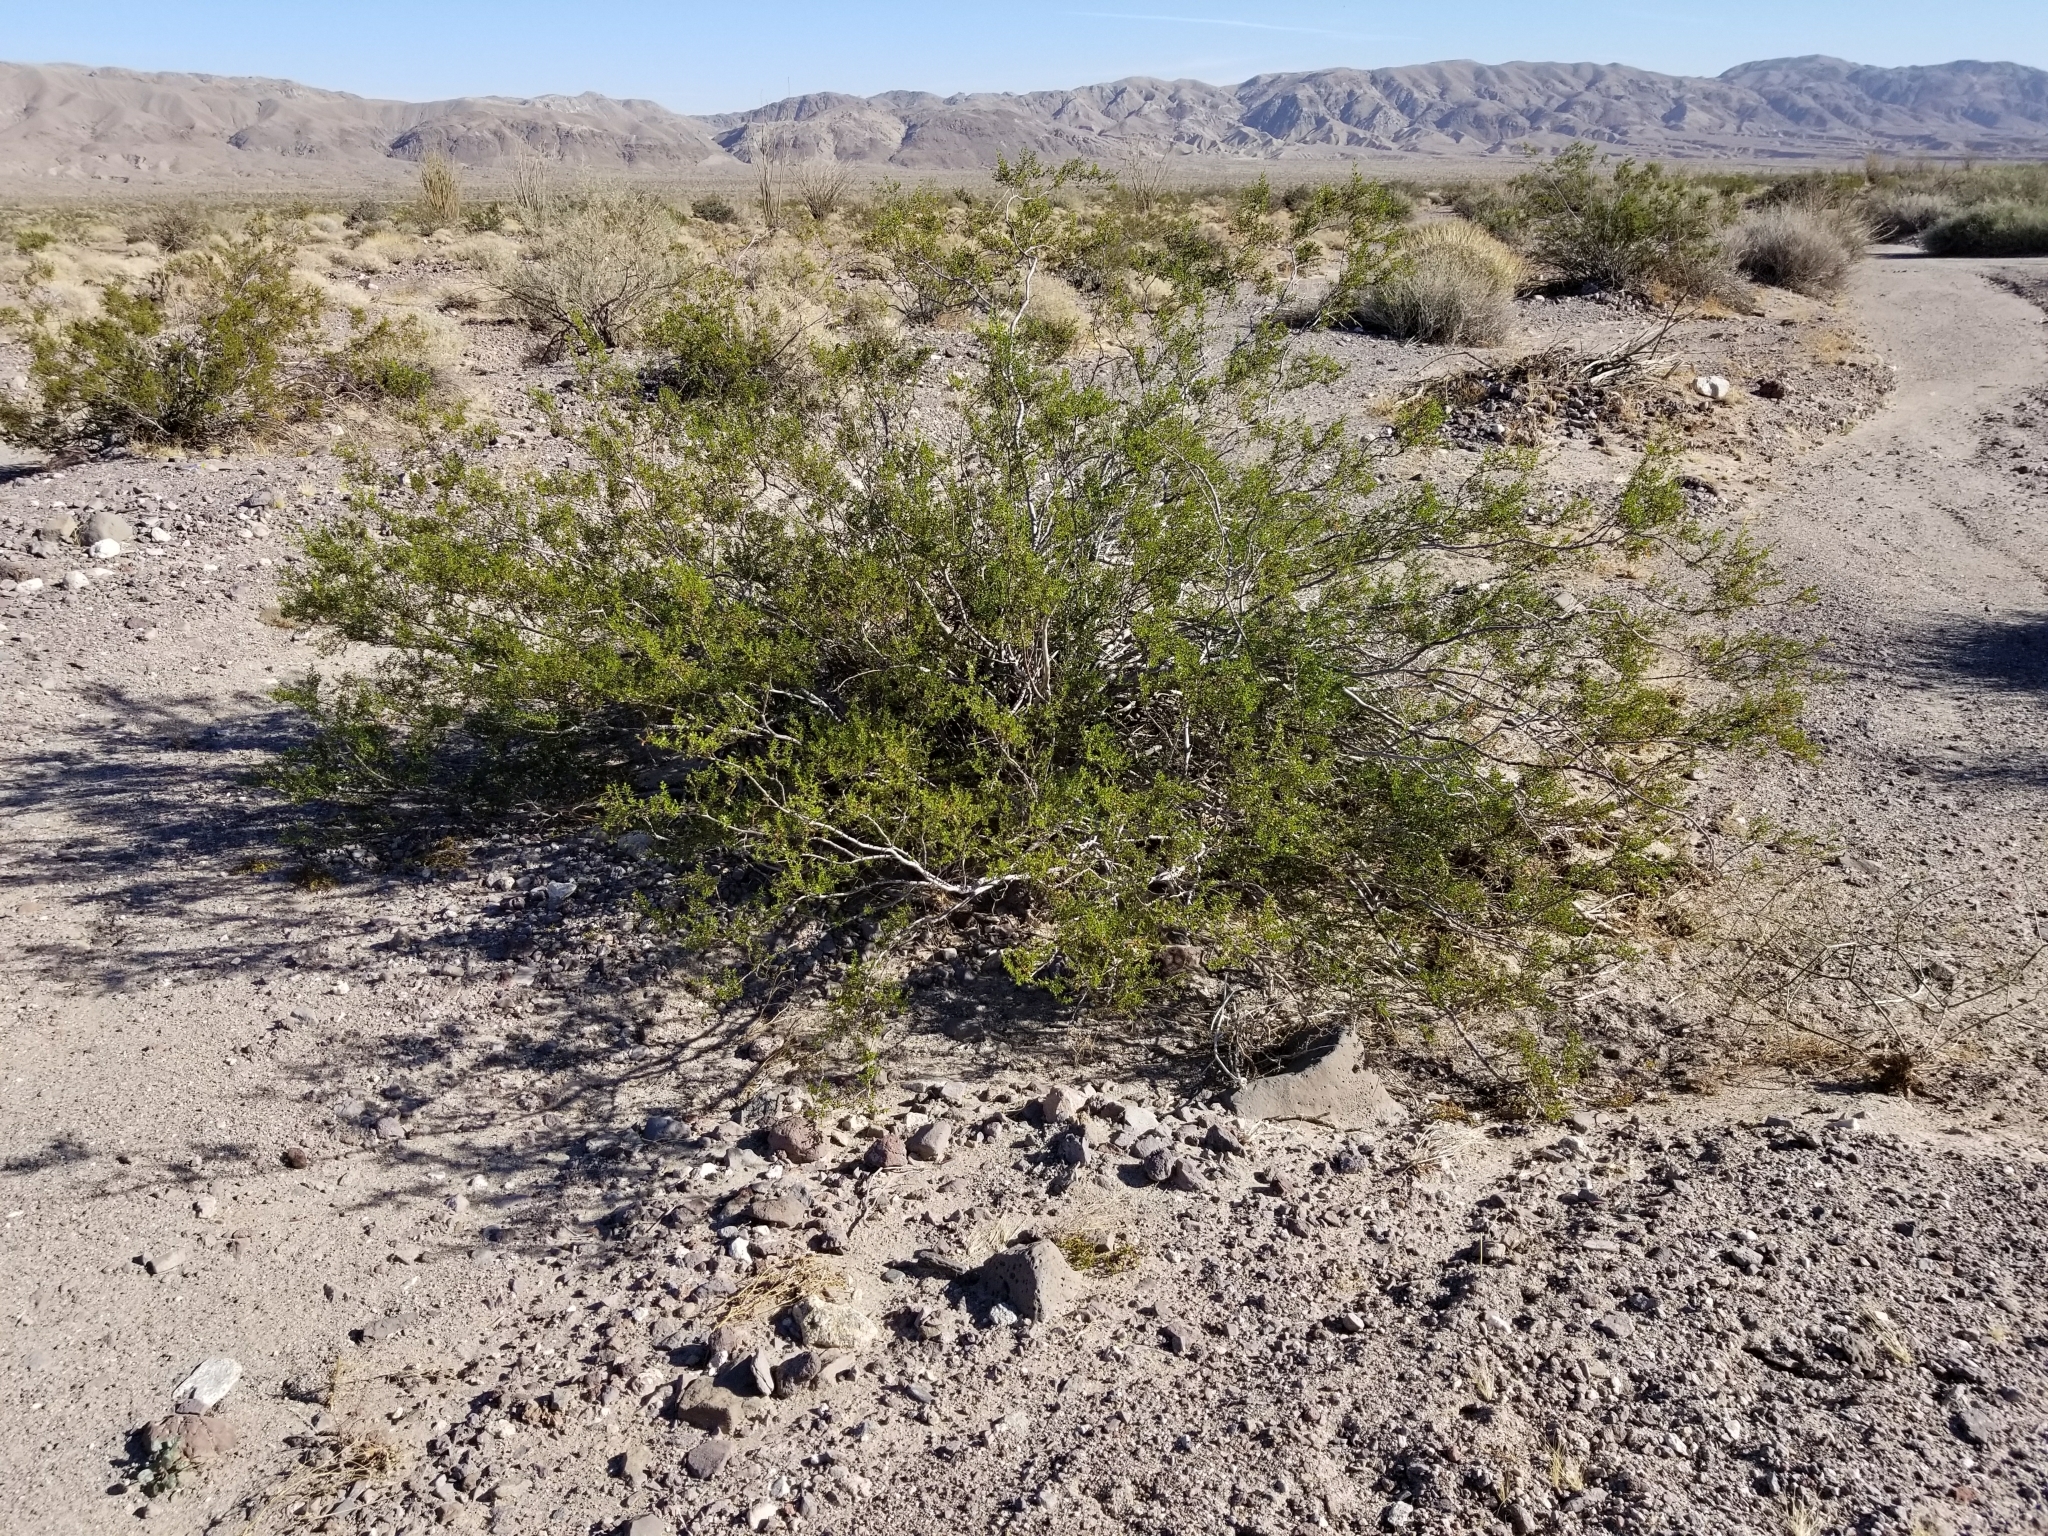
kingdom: Plantae
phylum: Tracheophyta
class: Magnoliopsida
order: Zygophyllales
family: Zygophyllaceae
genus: Larrea
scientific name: Larrea tridentata
